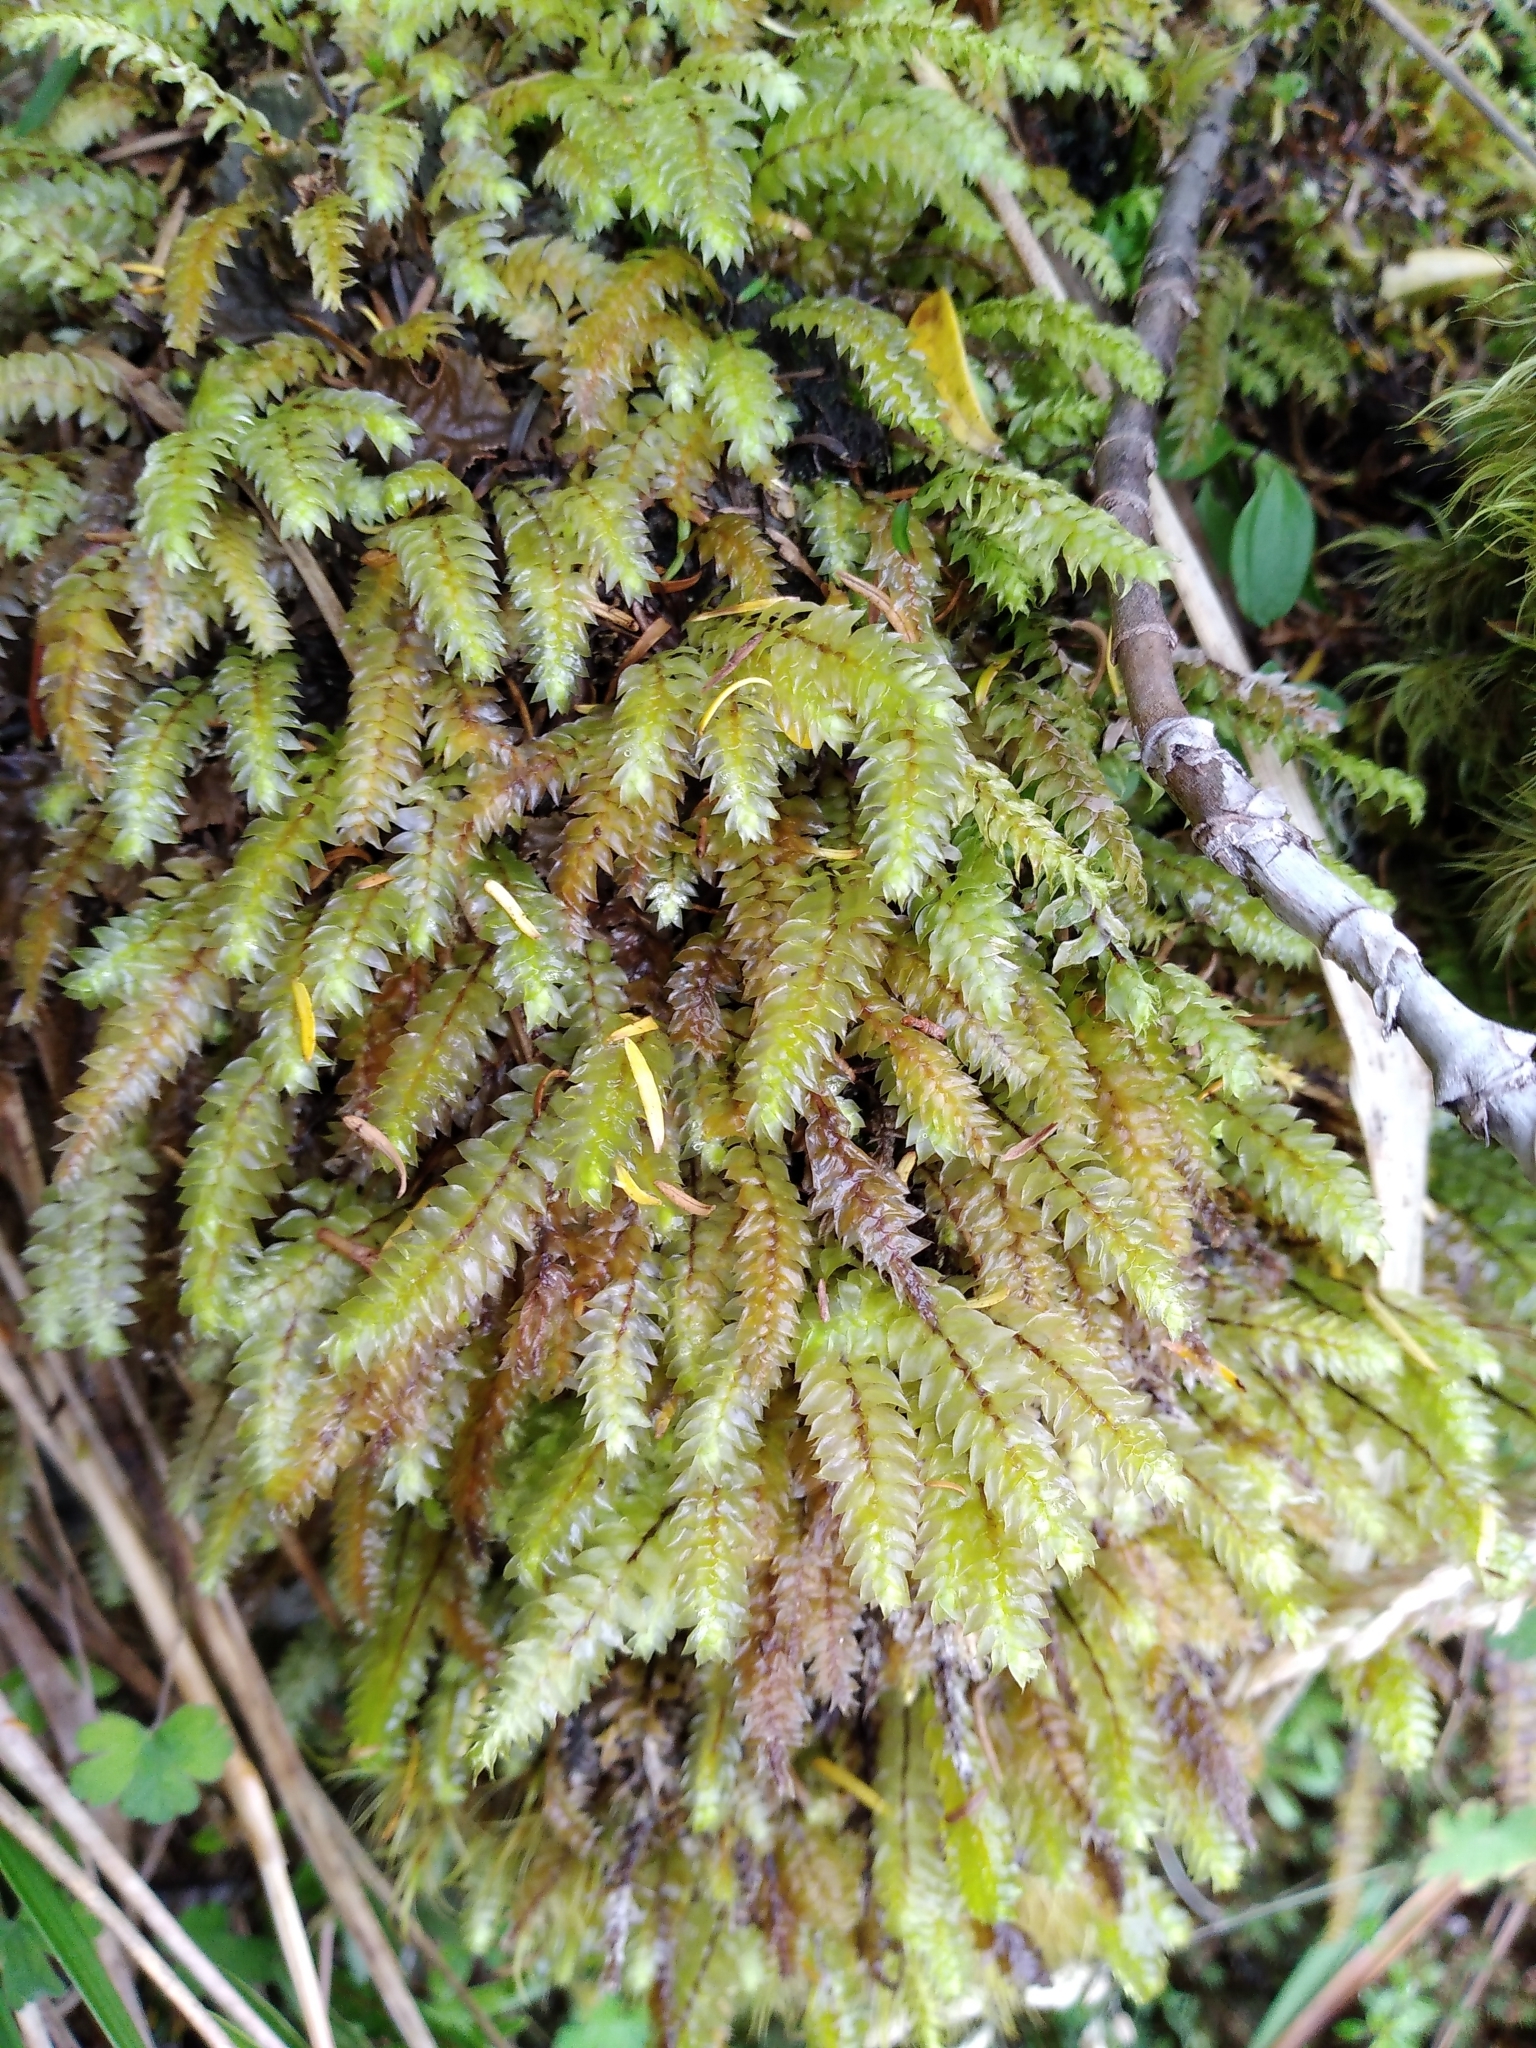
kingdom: Plantae
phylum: Bryophyta
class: Bryopsida
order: Hypopterygiales
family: Hypopterygiaceae
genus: Cyathophorum
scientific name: Cyathophorum bulbosum
